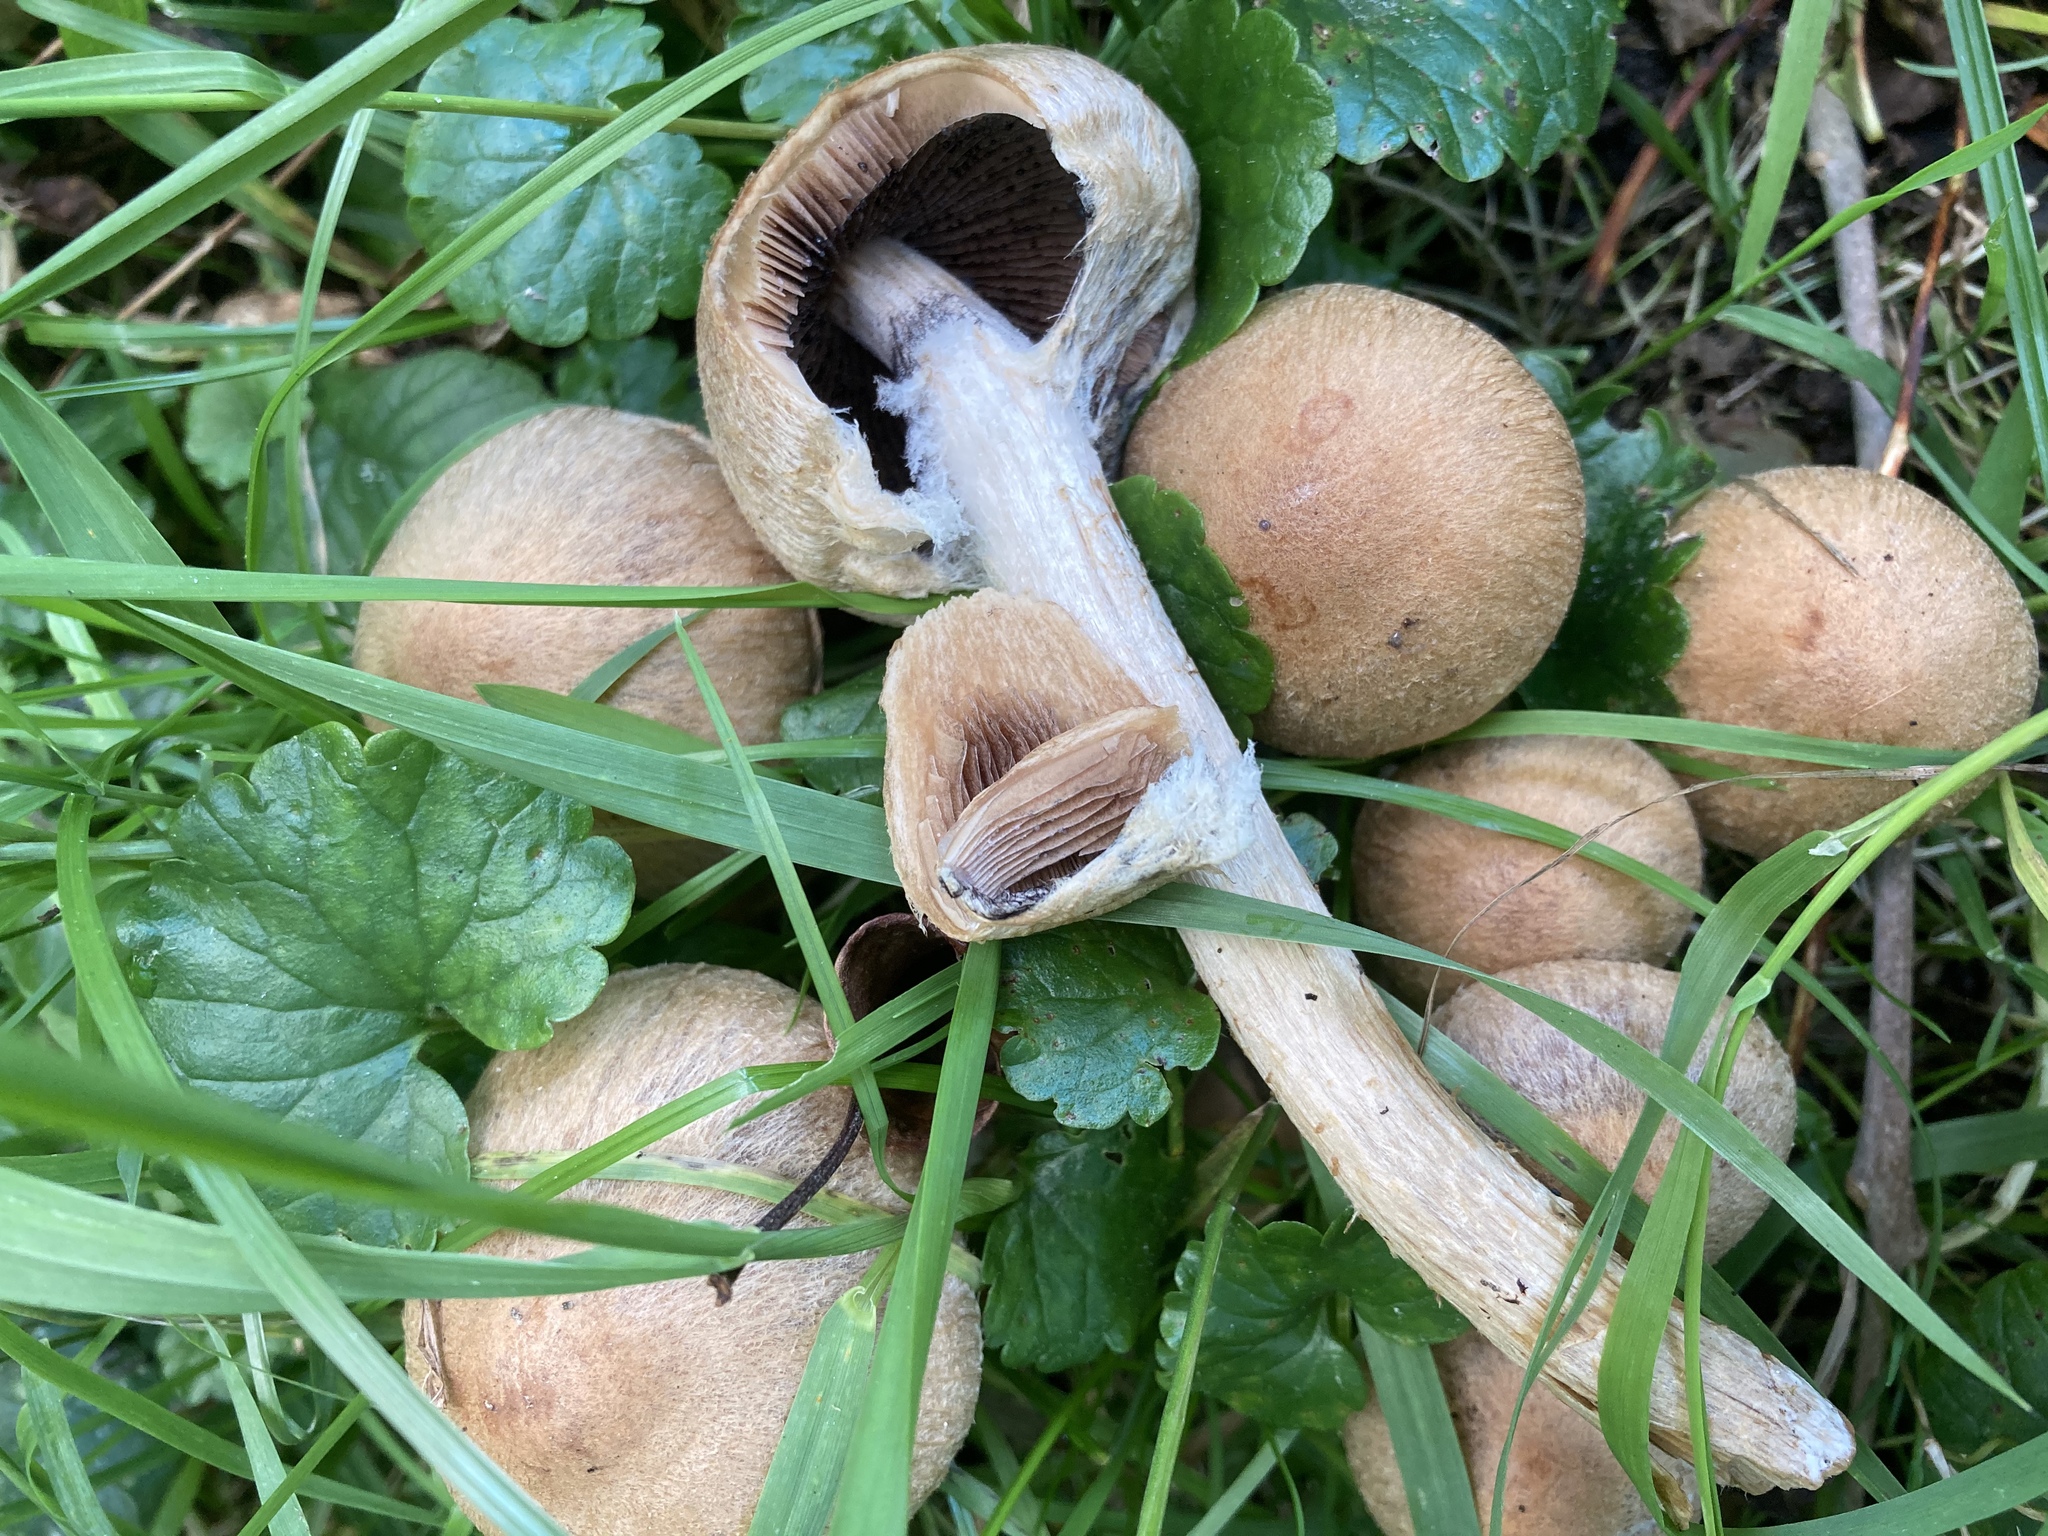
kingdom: Fungi
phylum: Basidiomycota
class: Agaricomycetes
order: Agaricales
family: Psathyrellaceae
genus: Lacrymaria
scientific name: Lacrymaria lacrymabunda
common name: Weeping widow
